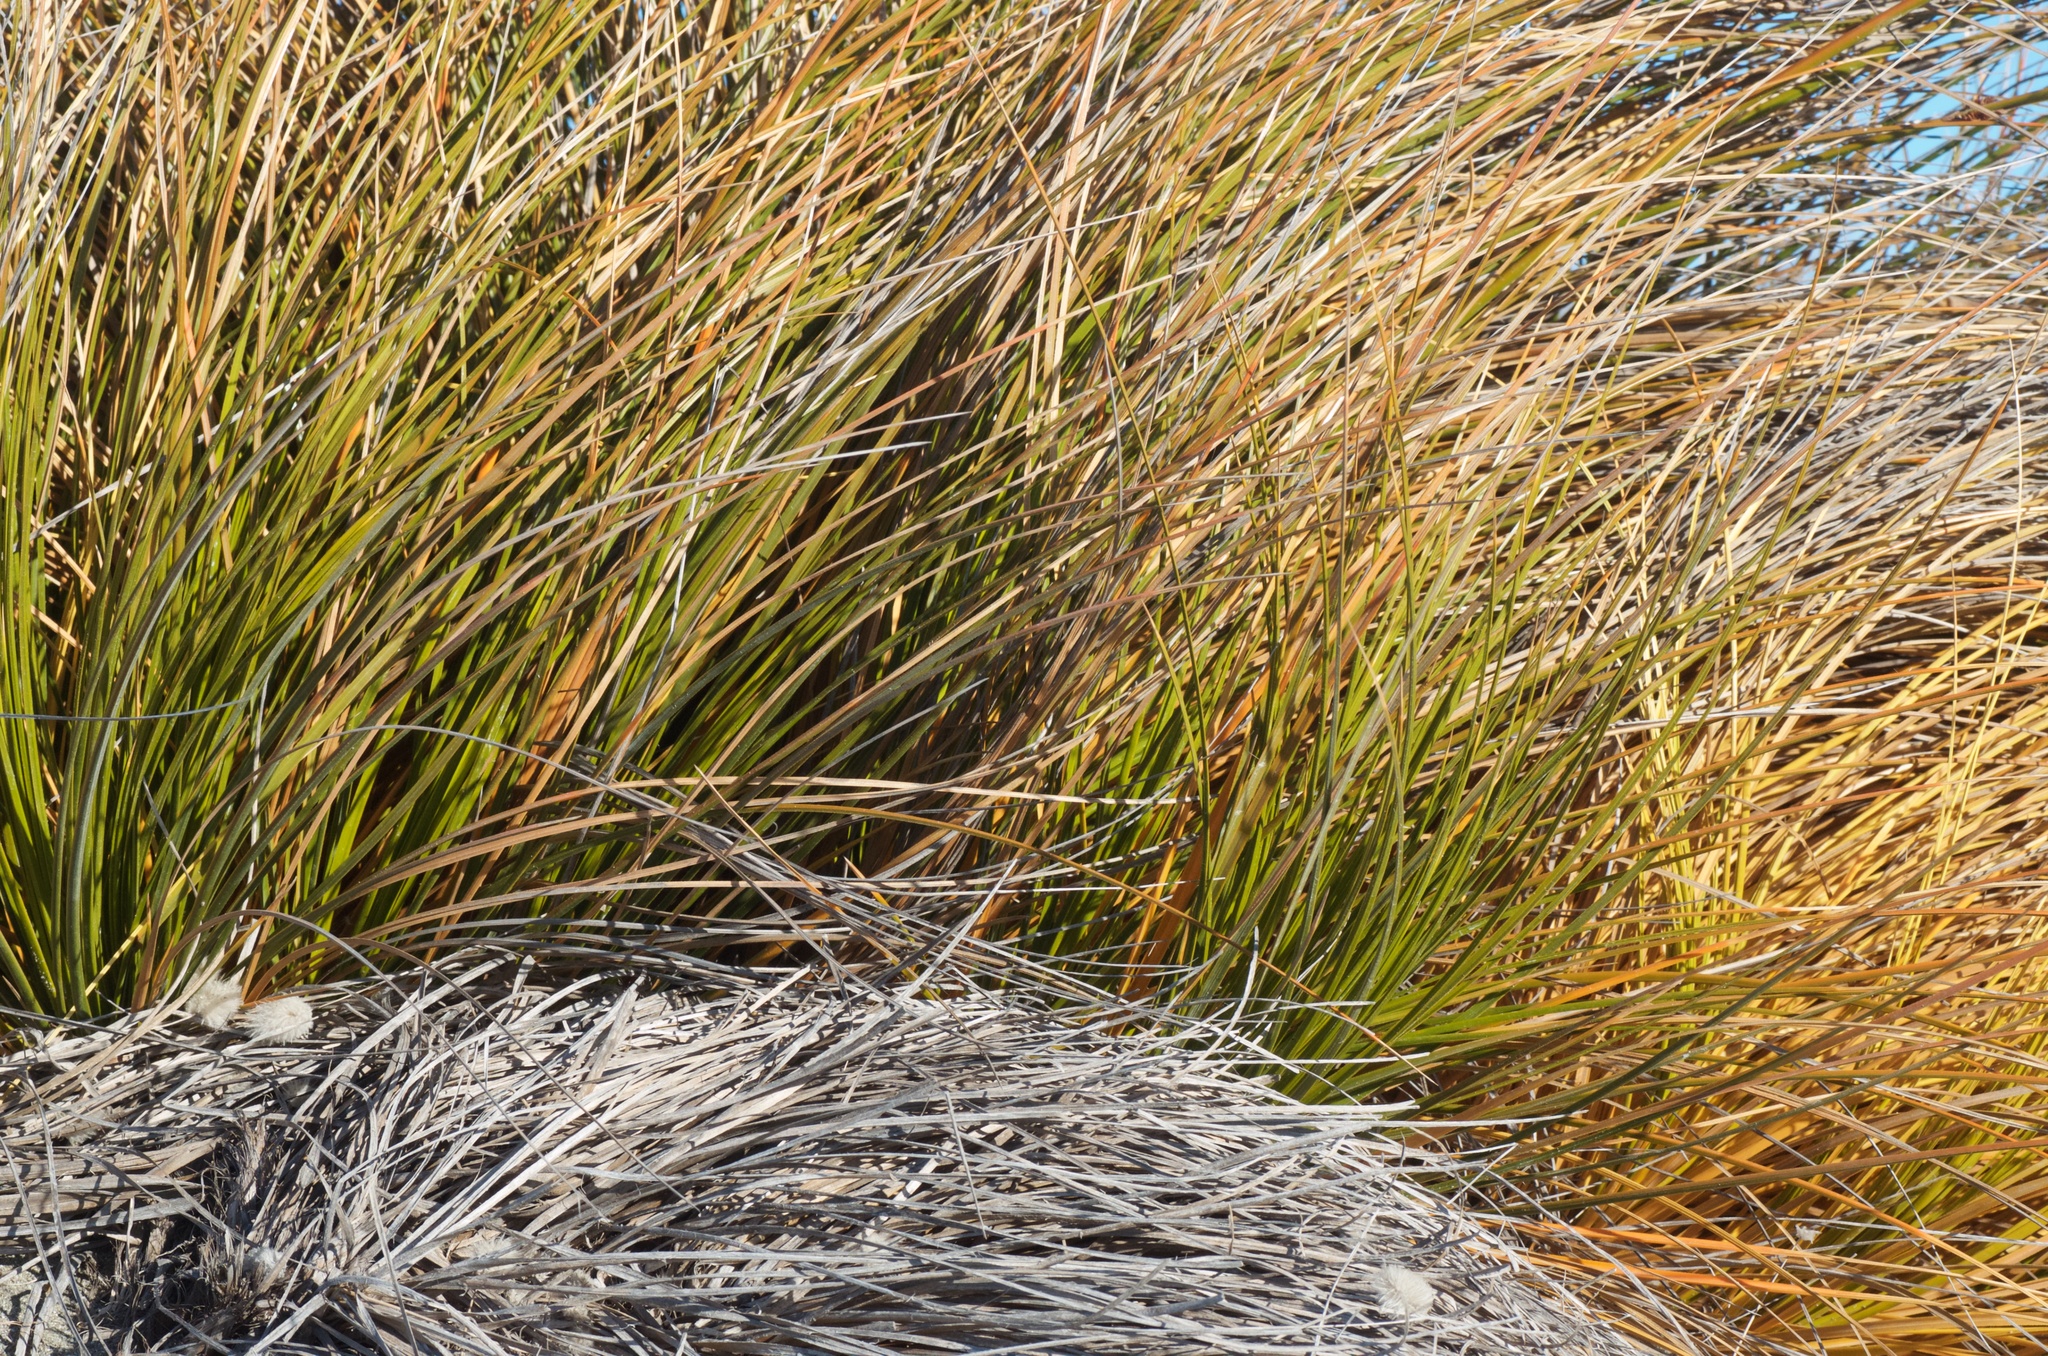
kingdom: Plantae
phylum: Tracheophyta
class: Liliopsida
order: Poales
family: Cyperaceae
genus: Ficinia
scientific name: Ficinia spiralis
